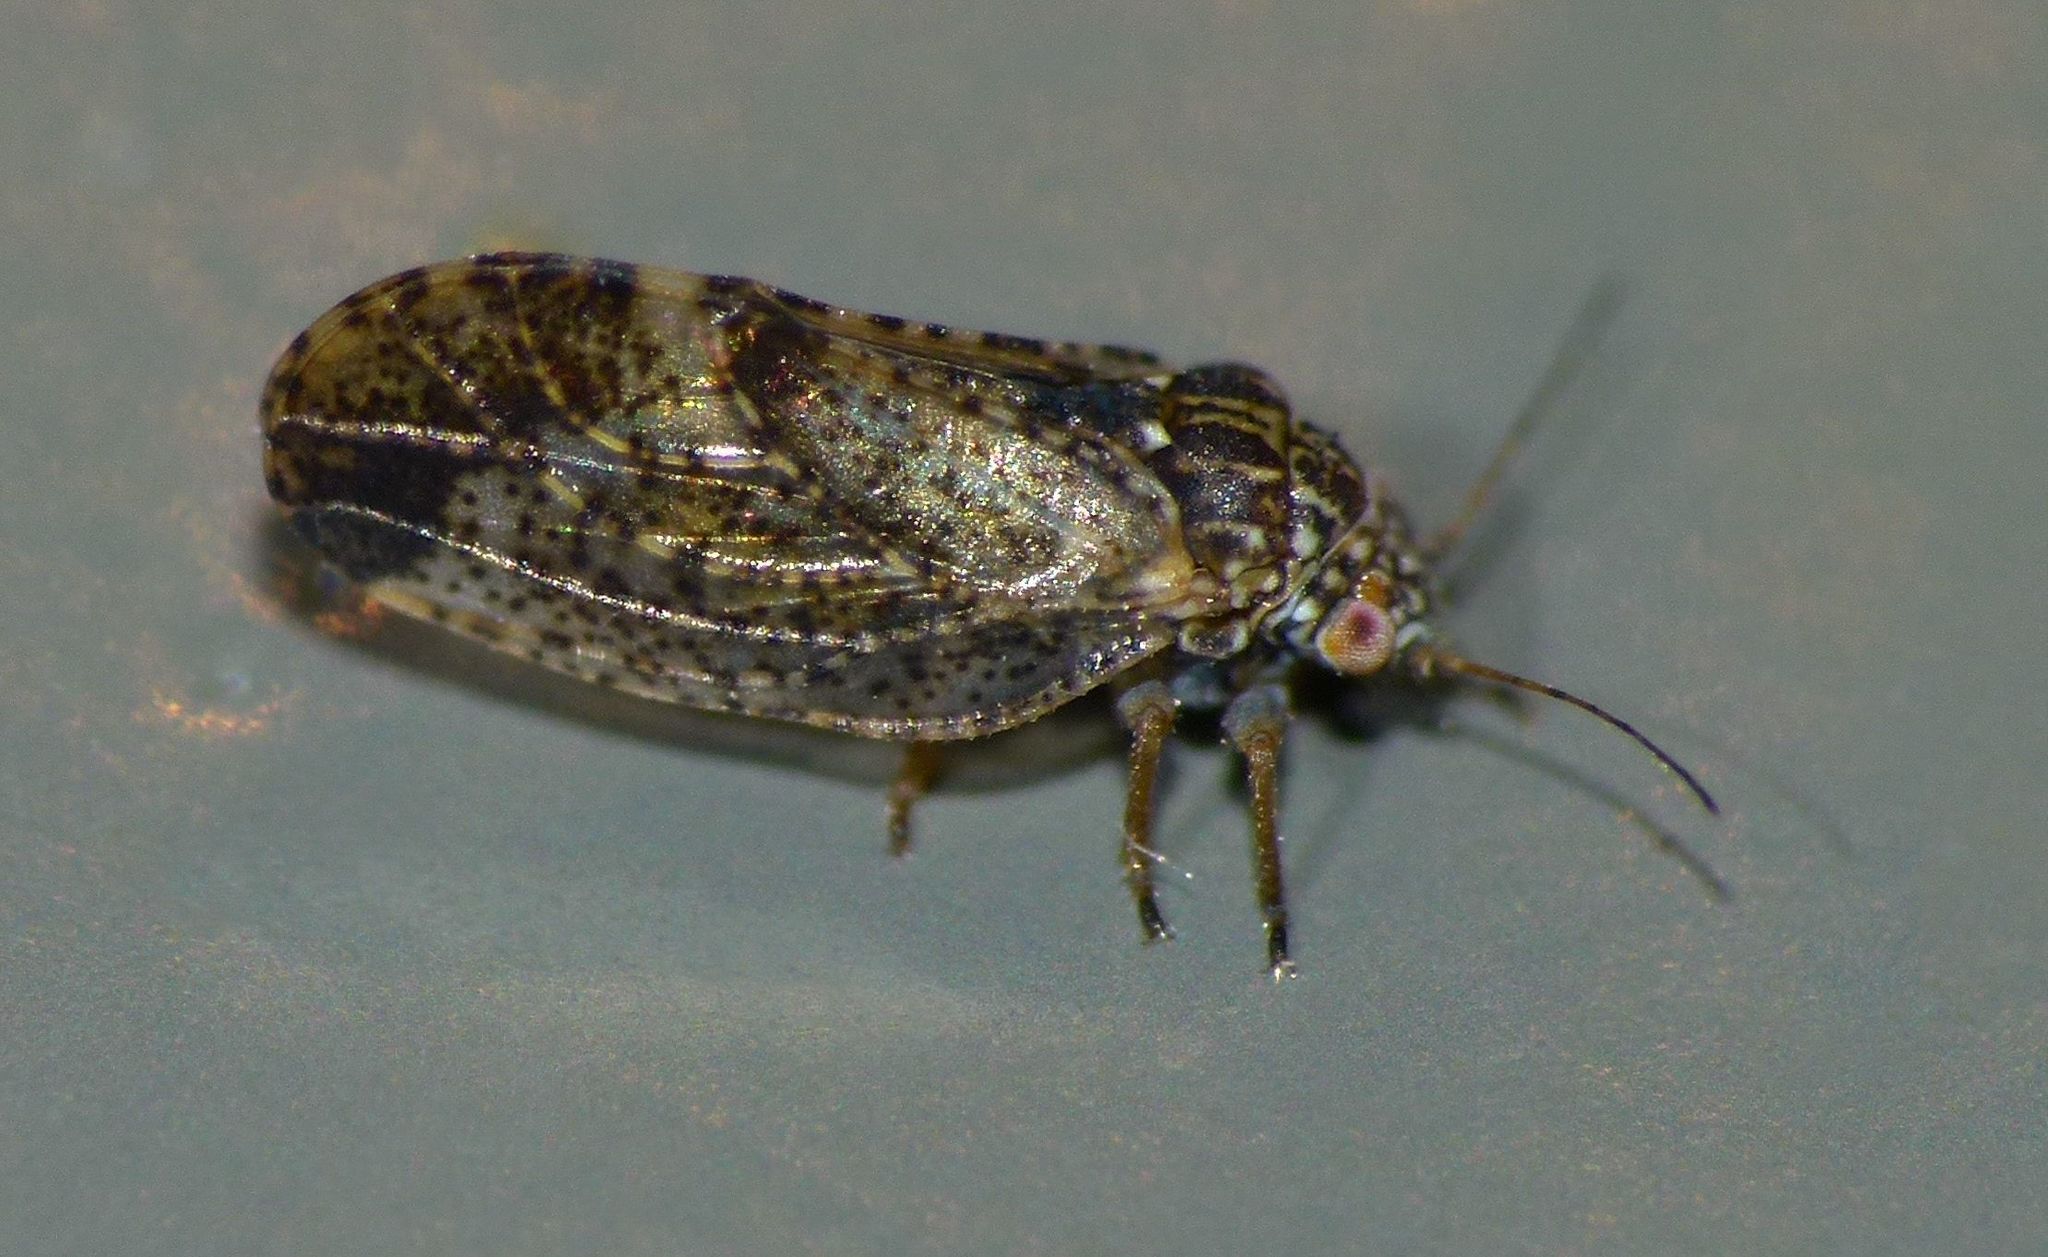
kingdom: Animalia
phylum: Arthropoda
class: Insecta
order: Hemiptera
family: Psyllidae
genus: Acizzia
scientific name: Acizzia apicalis
